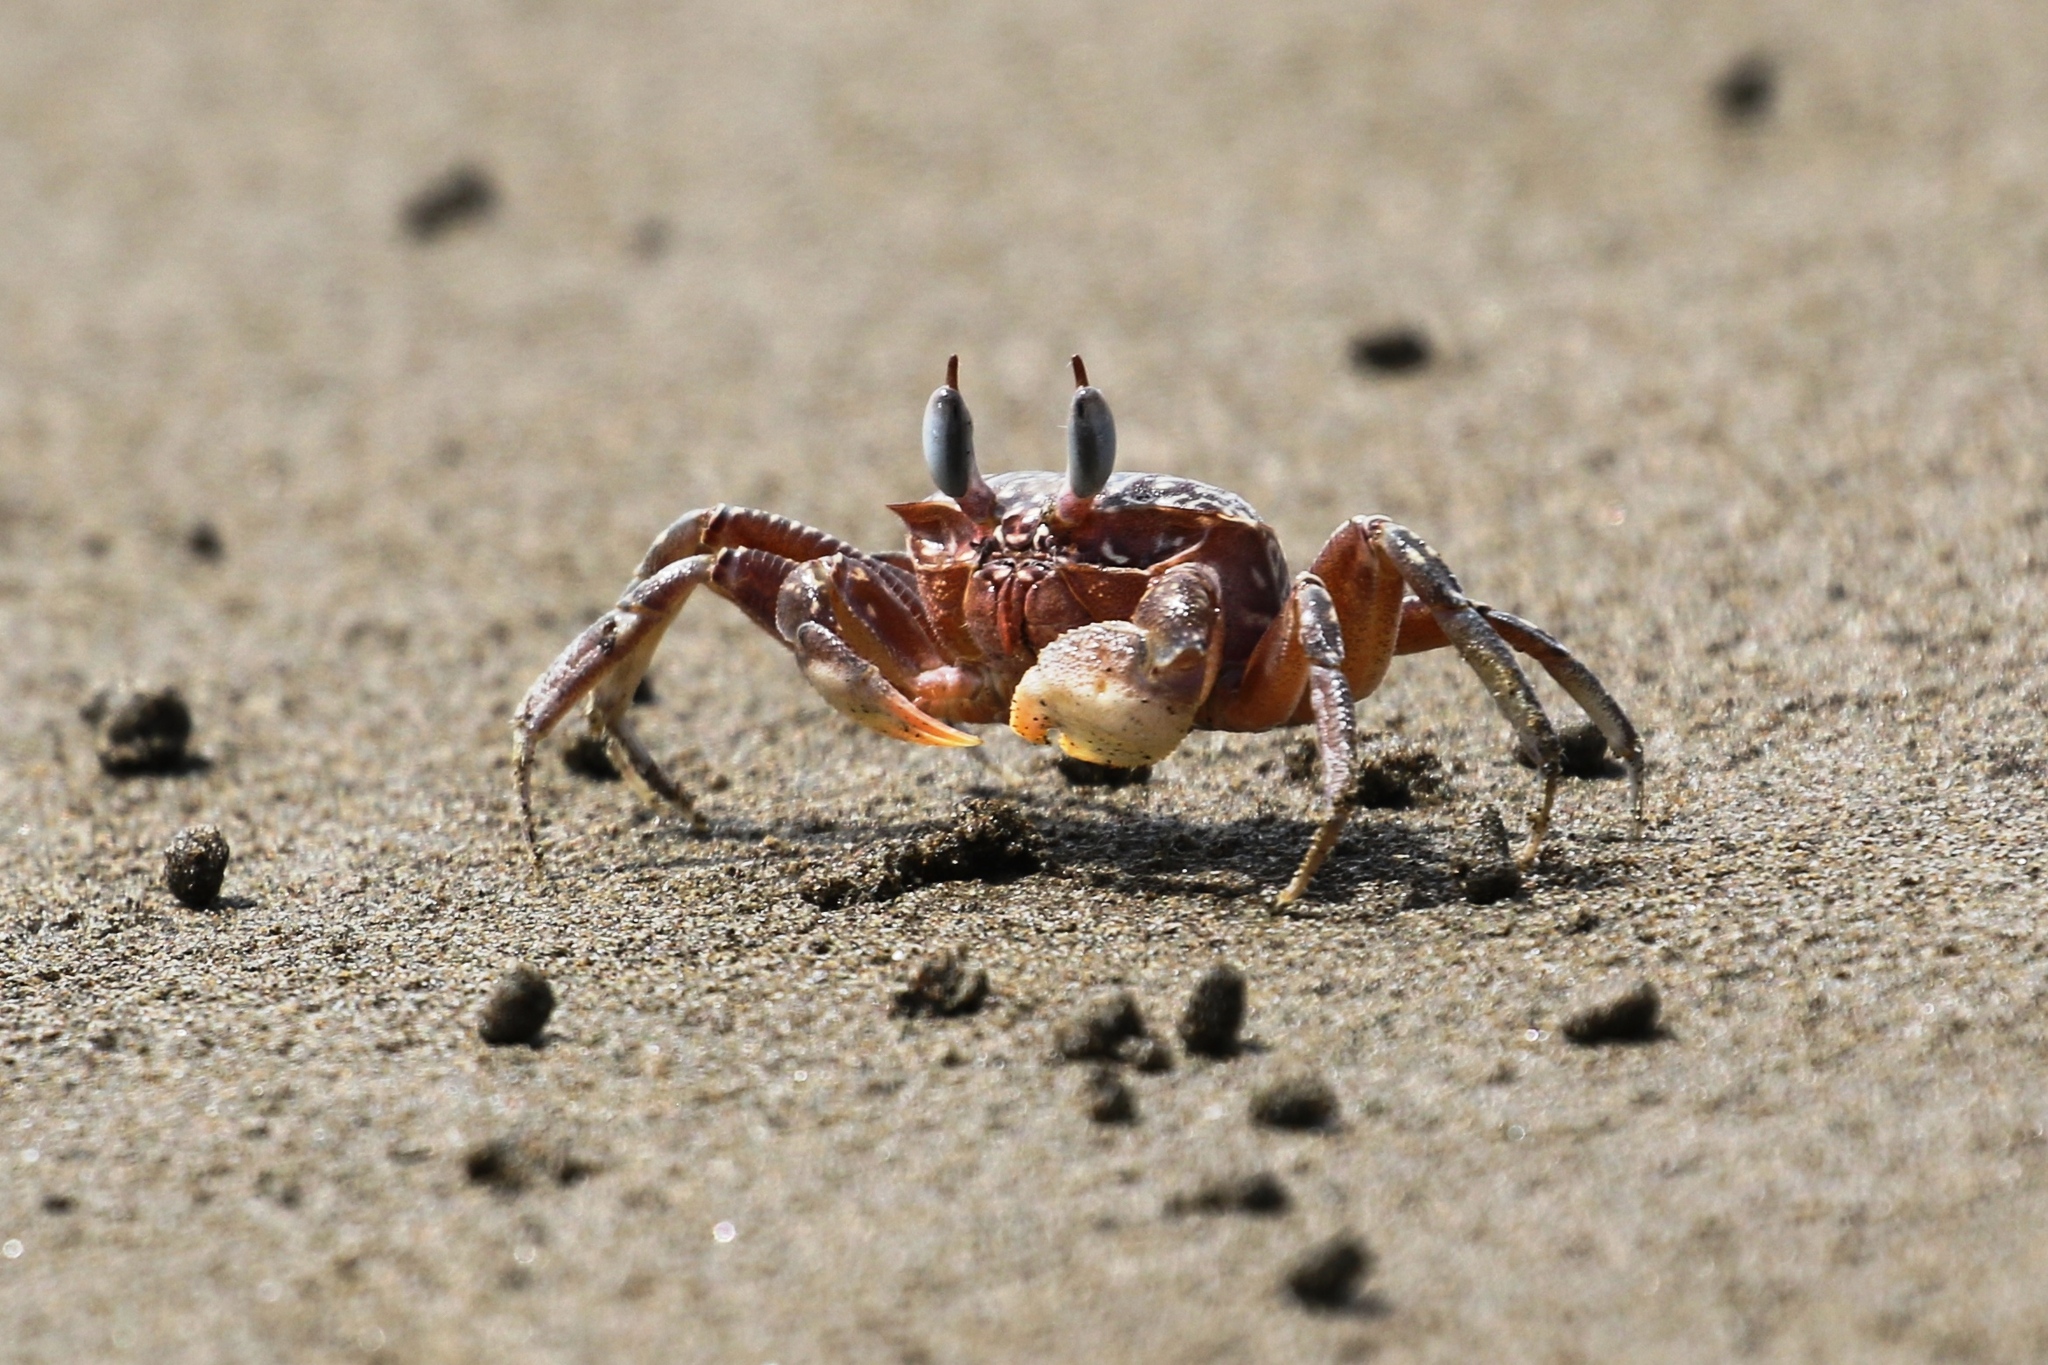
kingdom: Animalia
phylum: Arthropoda
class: Malacostraca
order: Decapoda
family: Ocypodidae
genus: Ocypode
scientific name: Ocypode gaudichaudii
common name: Pacific ghost crab
